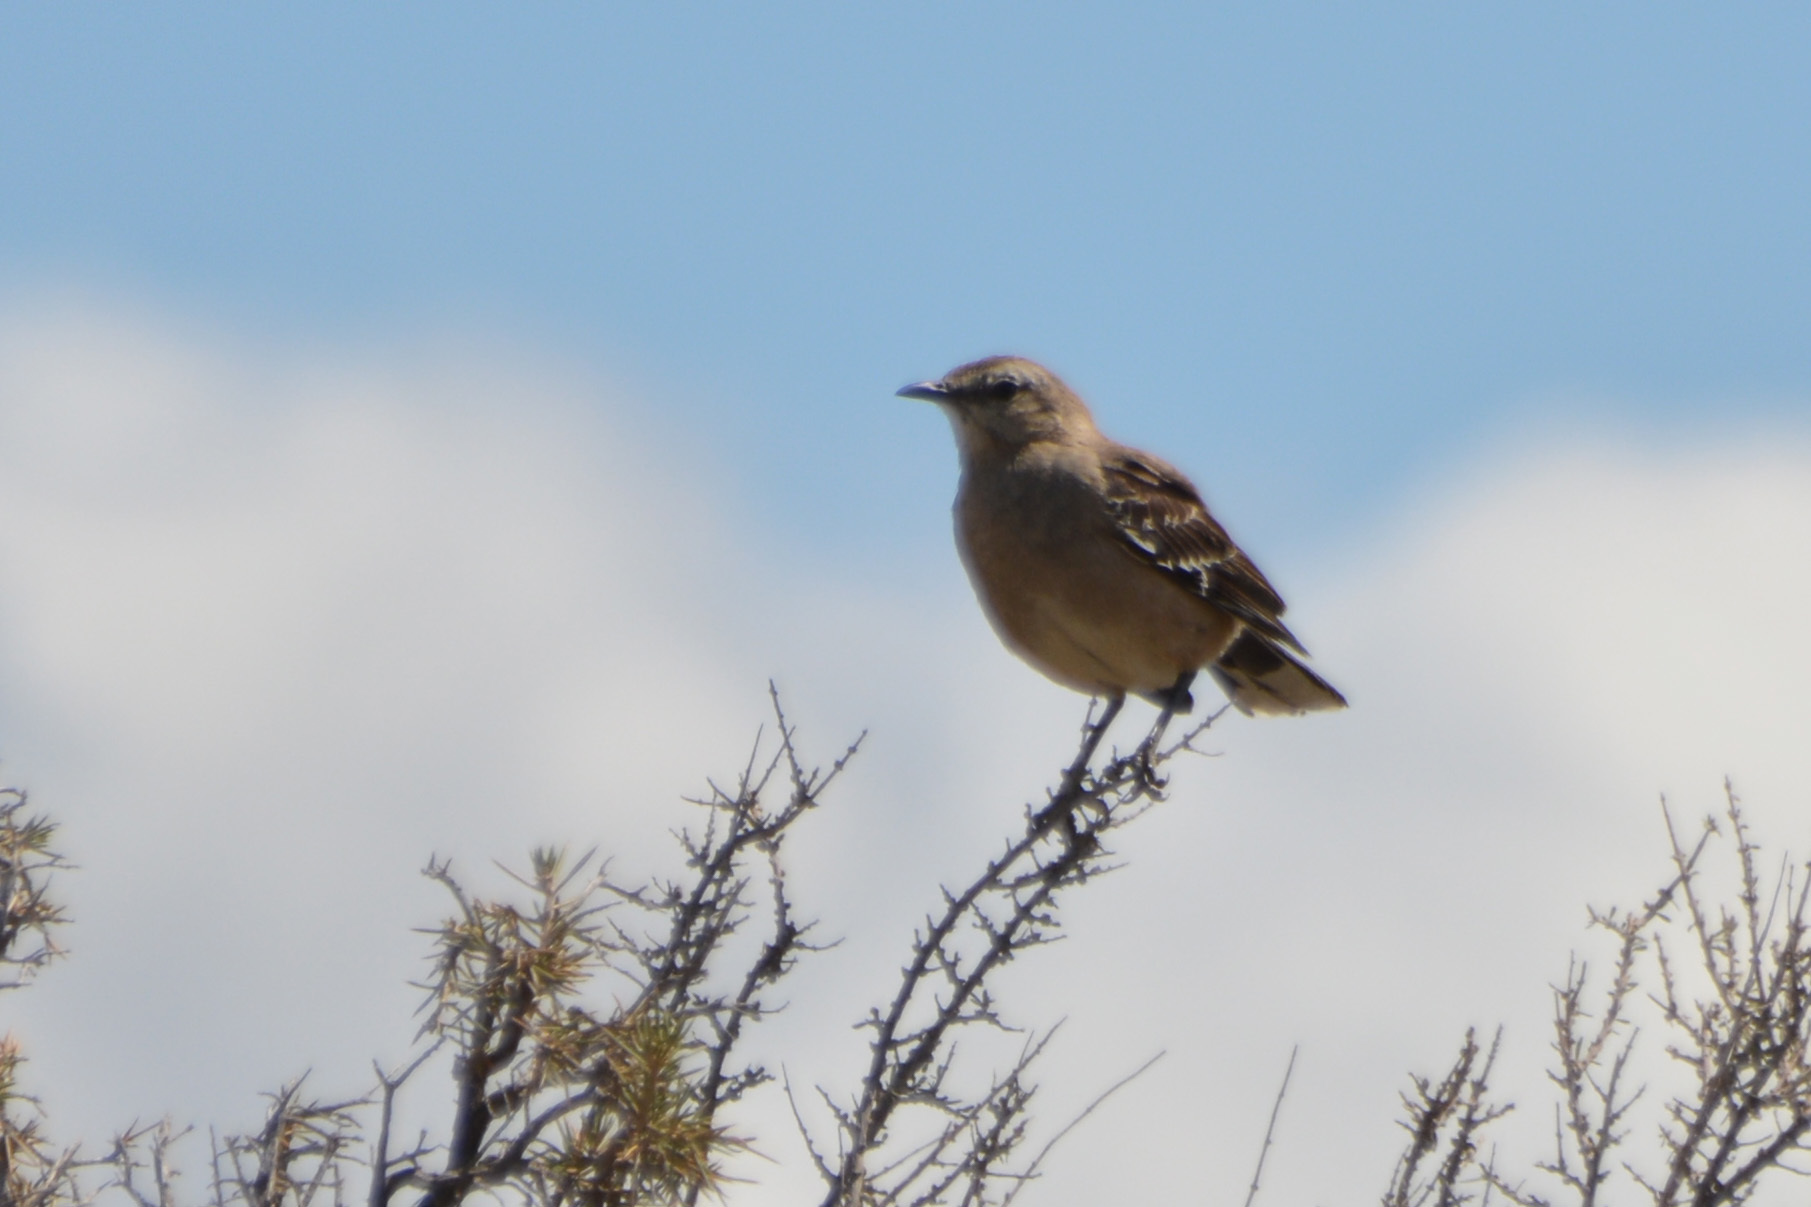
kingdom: Animalia
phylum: Chordata
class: Aves
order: Passeriformes
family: Mimidae
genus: Mimus
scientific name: Mimus patagonicus
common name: Patagonian mockingbird
